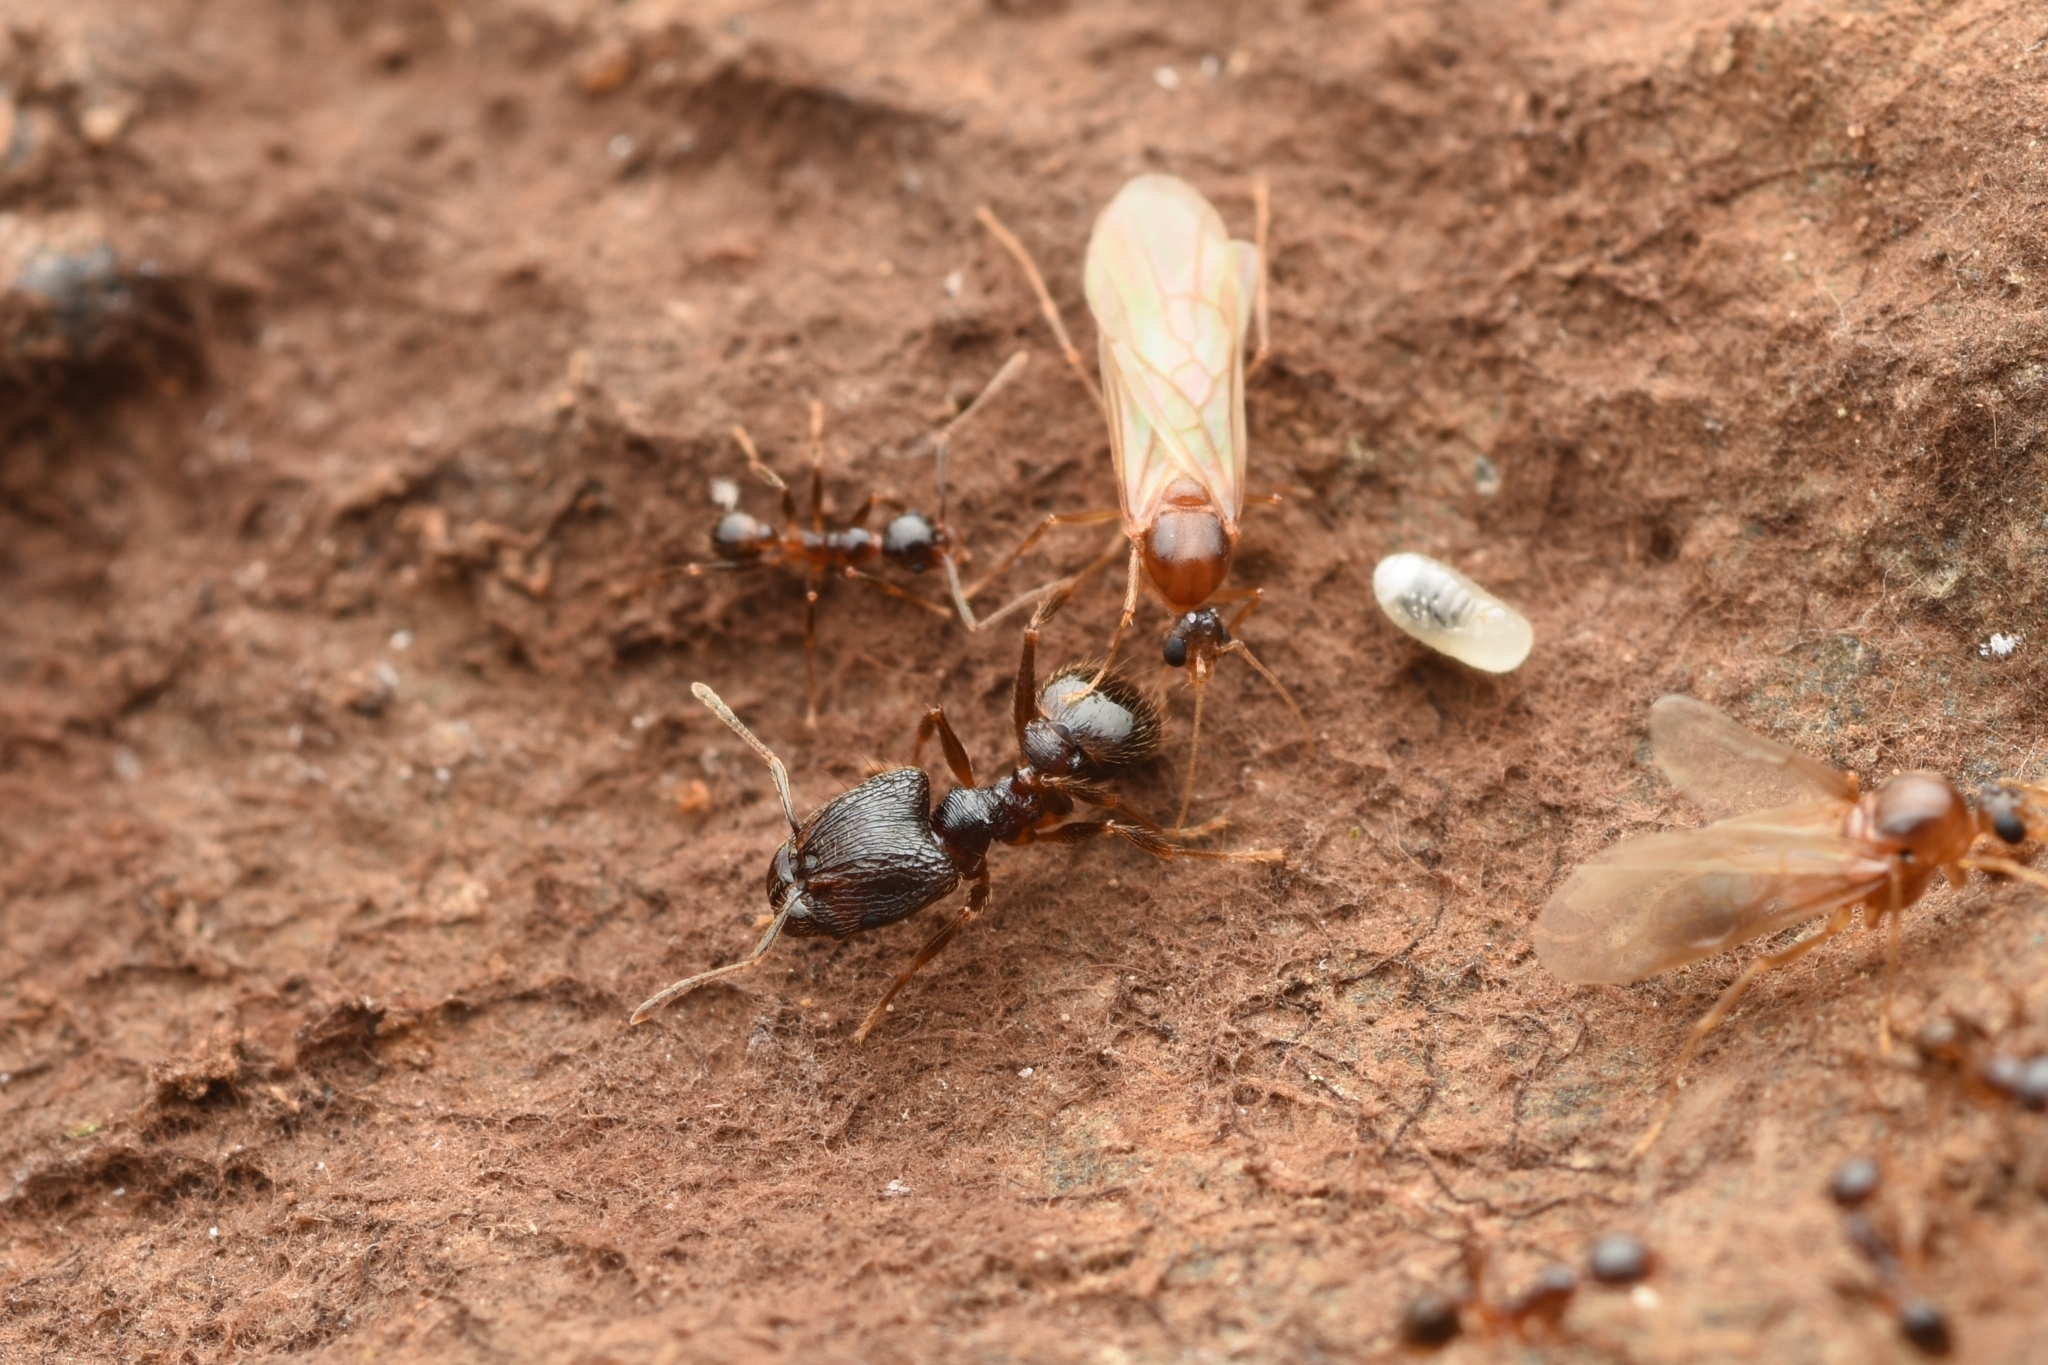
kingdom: Animalia
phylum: Arthropoda
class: Insecta
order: Hymenoptera
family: Formicidae
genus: Pheidole
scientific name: Pheidole noda
